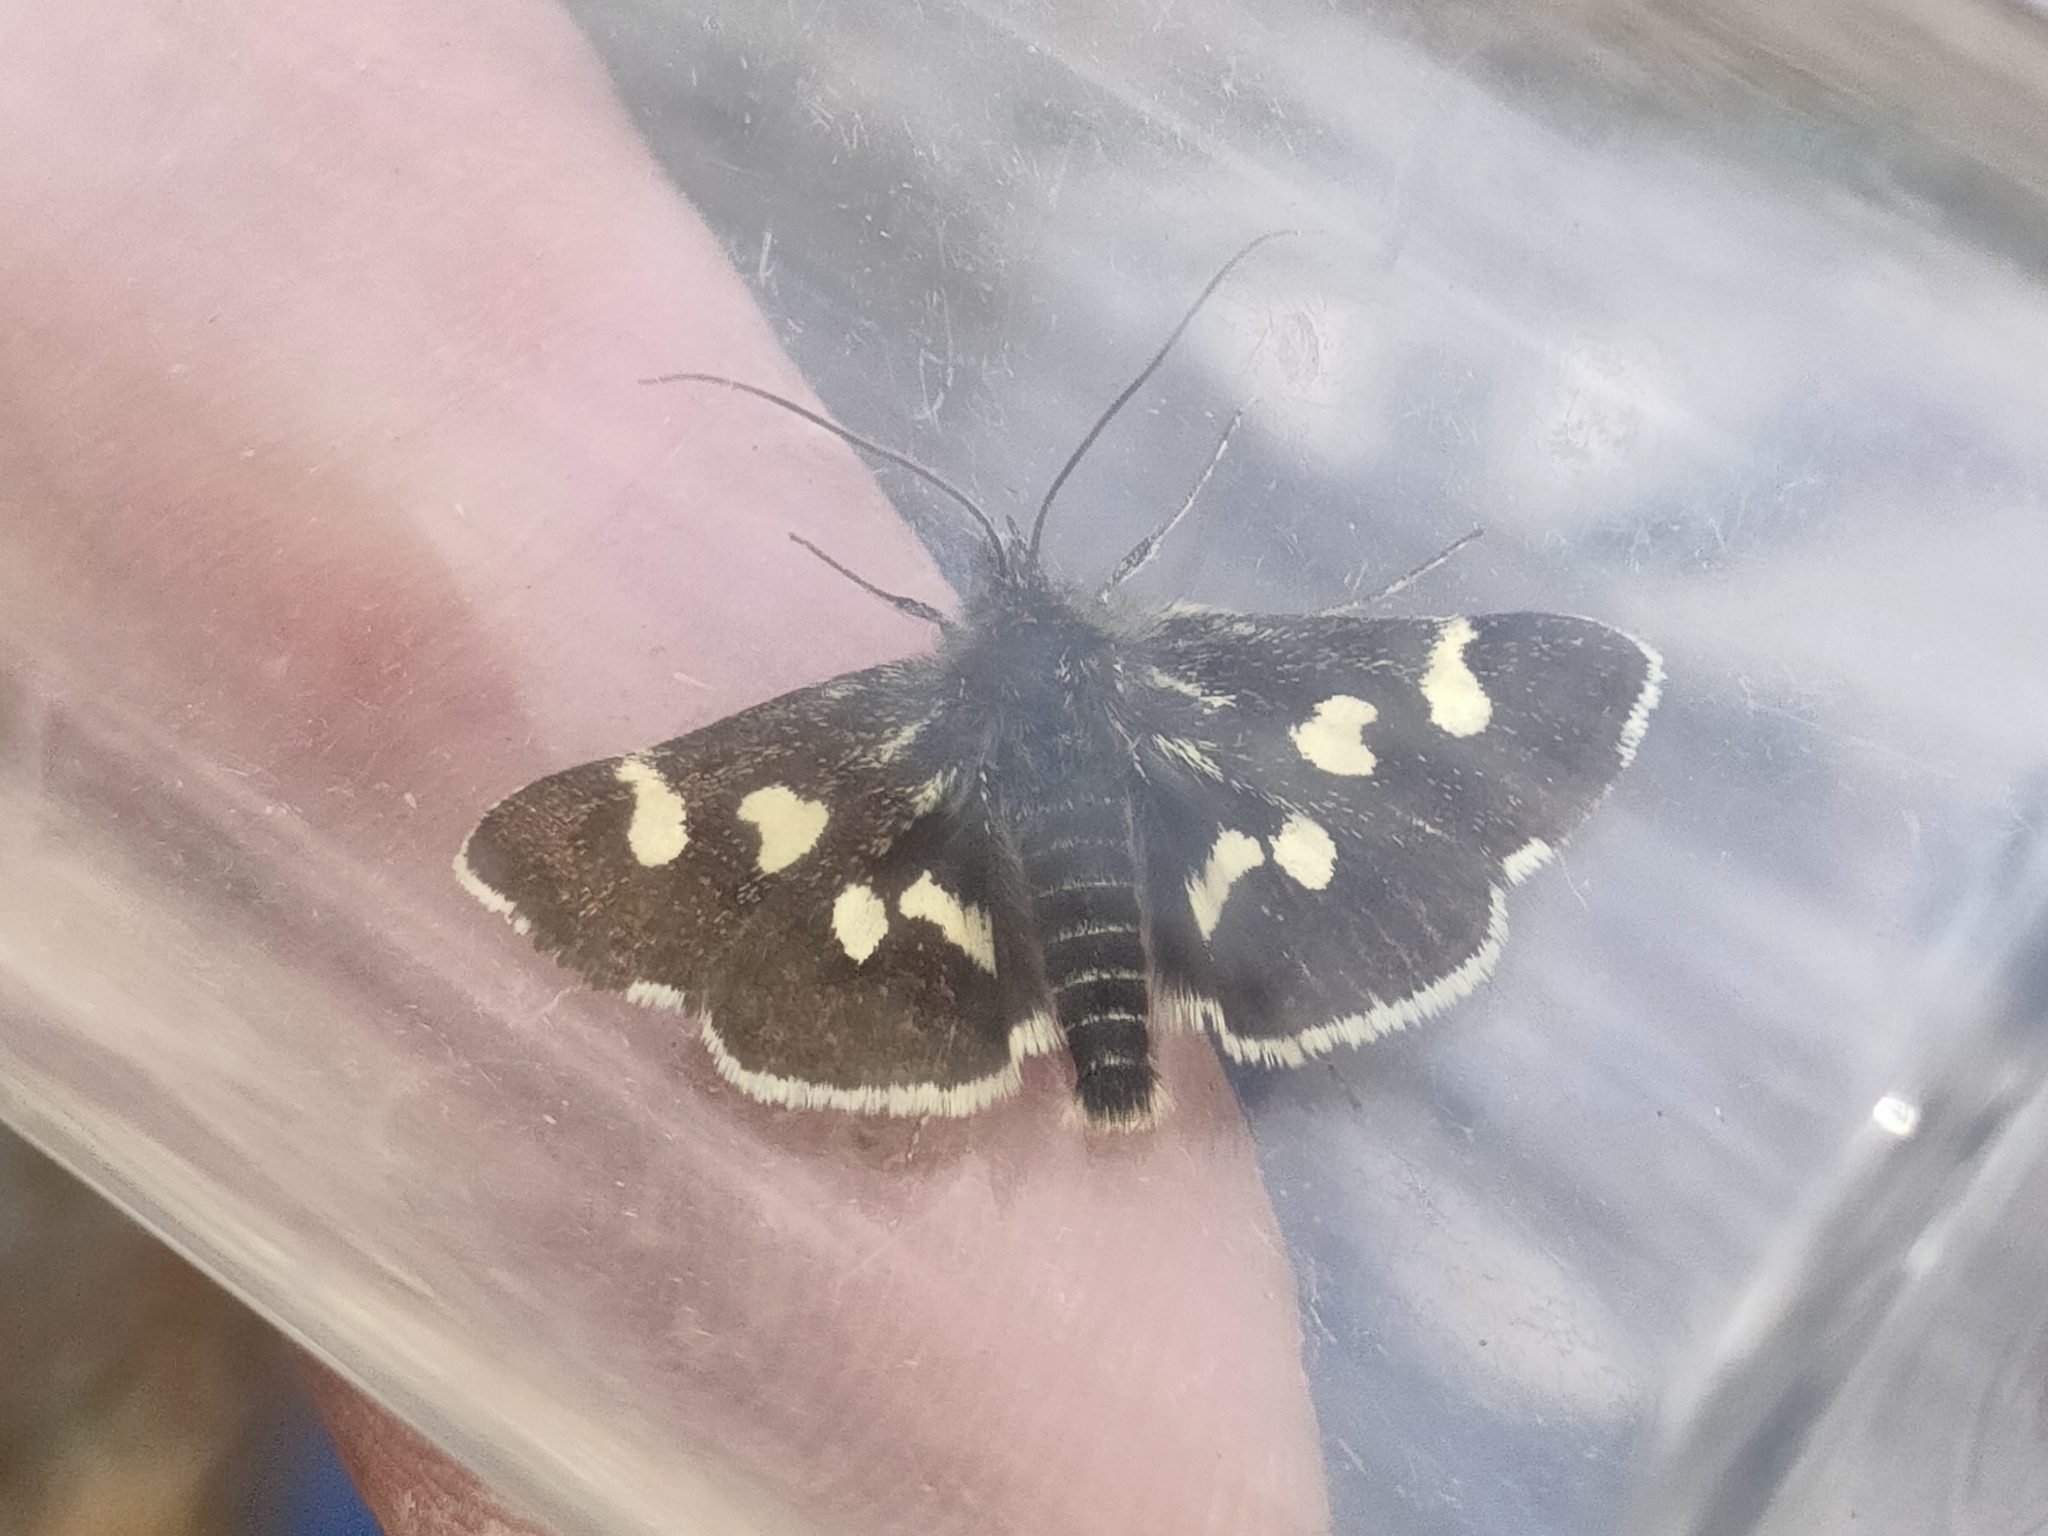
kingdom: Animalia
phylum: Arthropoda
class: Insecta
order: Lepidoptera
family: Crambidae
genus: Eurrhypis
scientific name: Eurrhypis pollinalis
